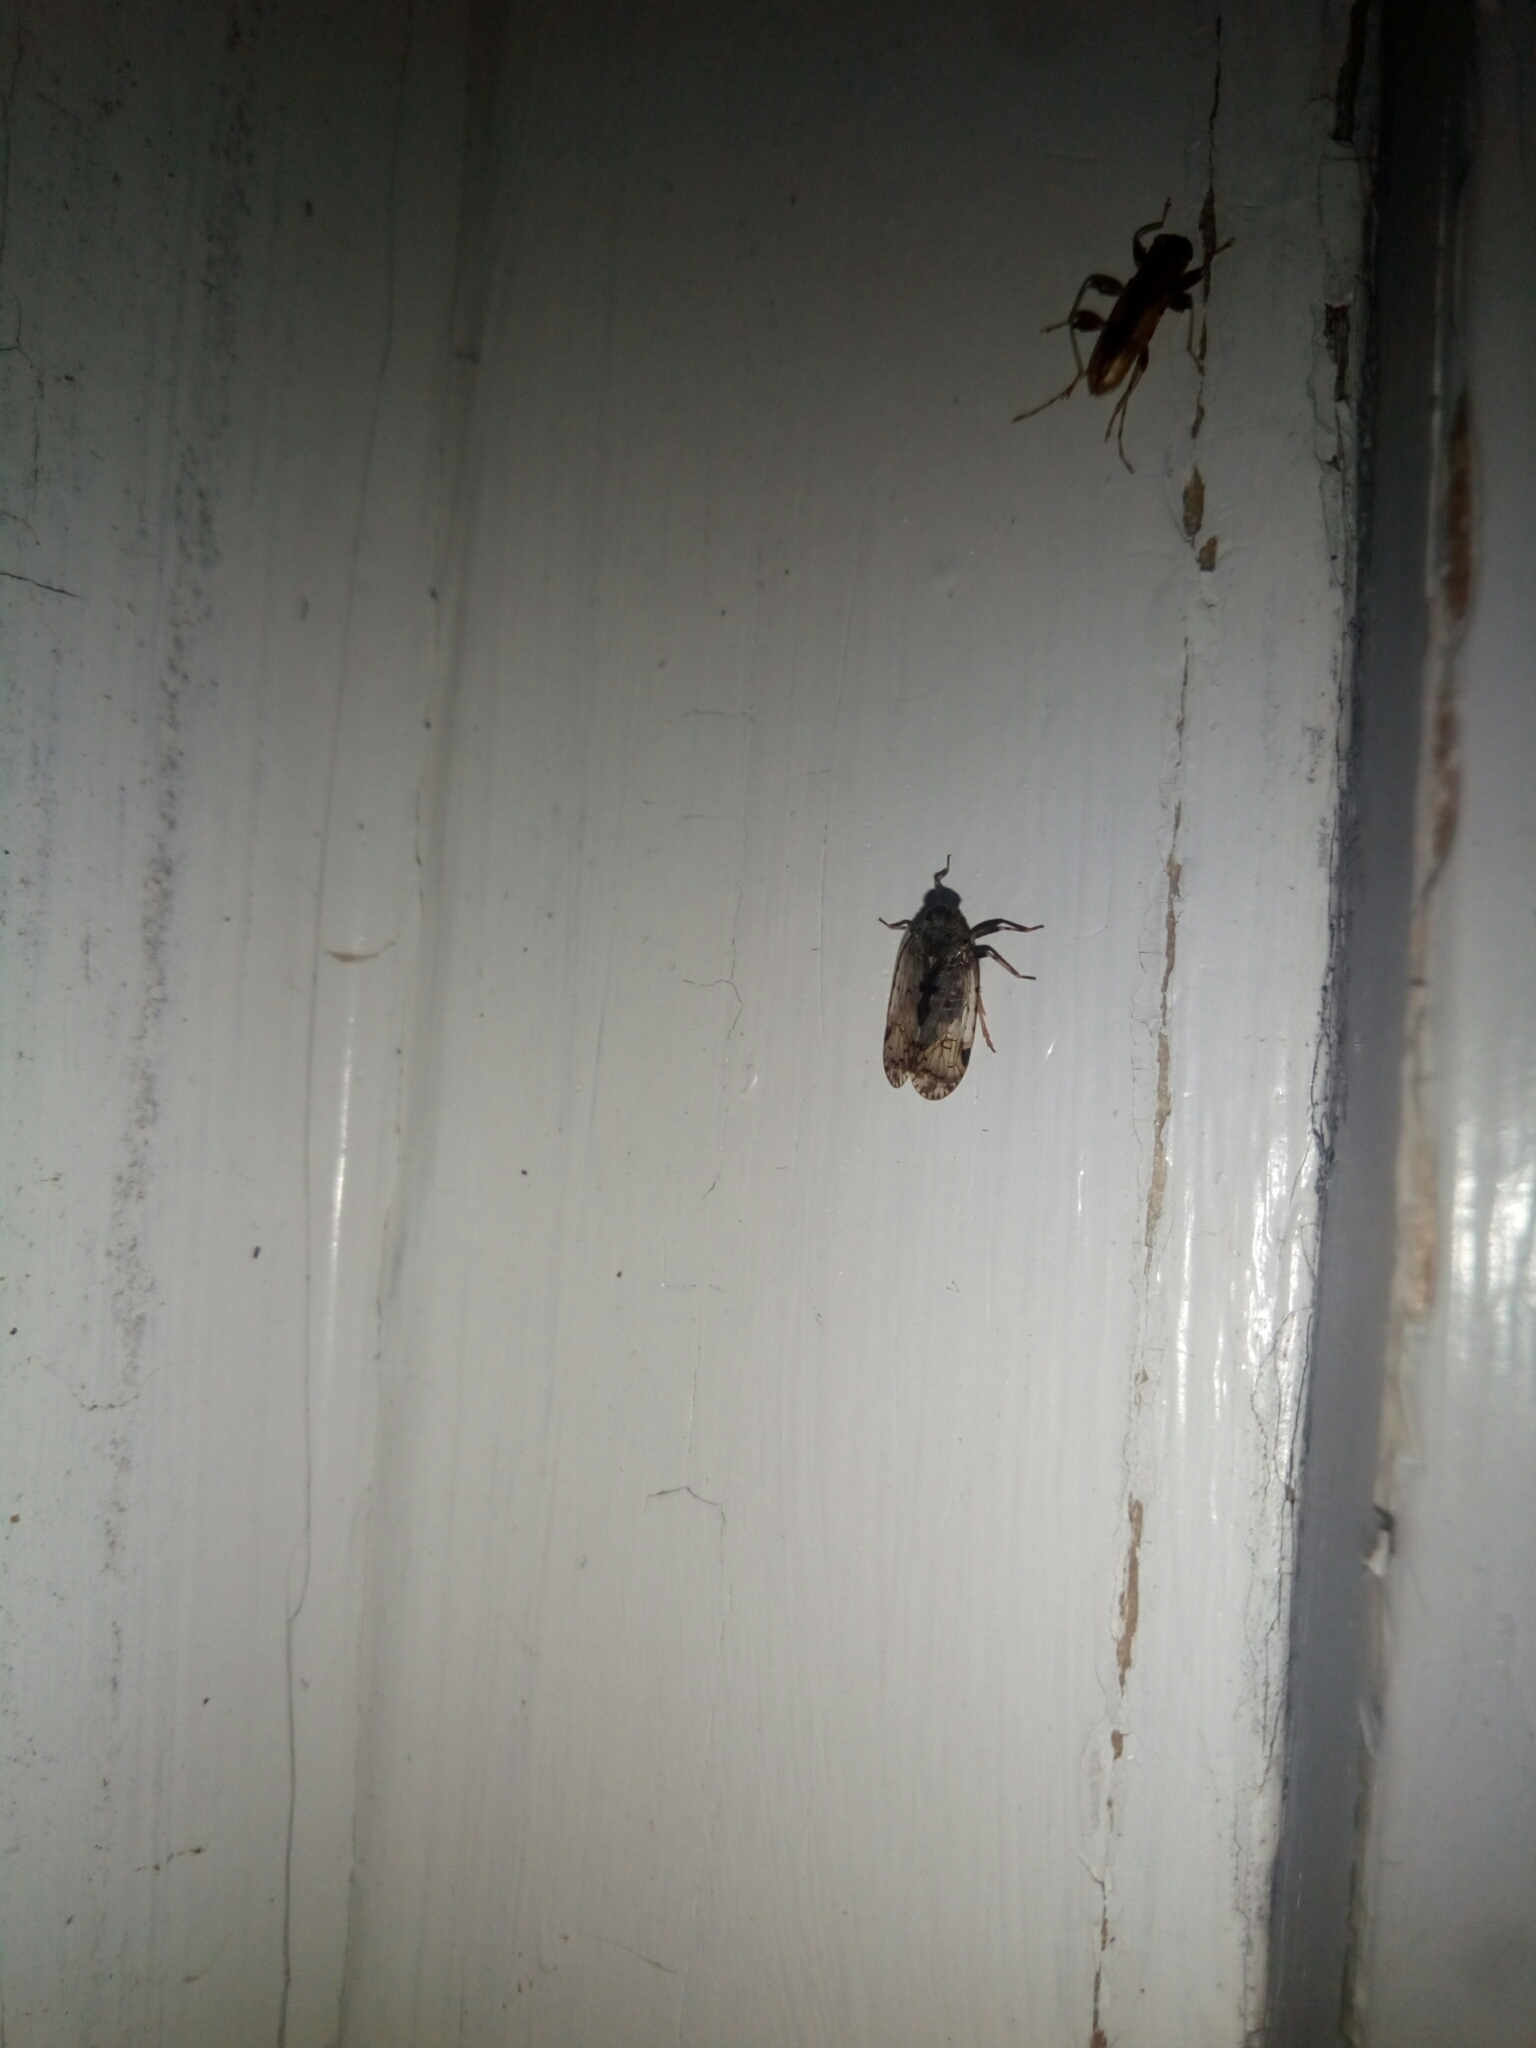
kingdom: Animalia
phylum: Arthropoda
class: Insecta
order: Hemiptera
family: Cixiidae
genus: Melanoliarus
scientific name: Melanoliarus placitus
